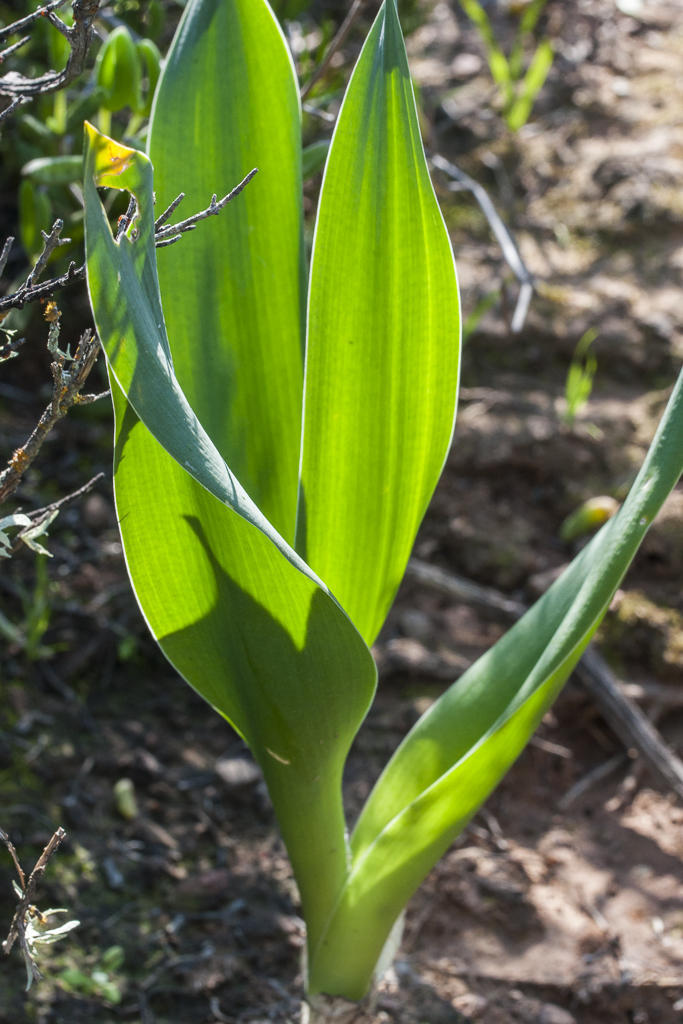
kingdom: Plantae
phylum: Tracheophyta
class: Liliopsida
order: Asparagales
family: Asparagaceae
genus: Drimia
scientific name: Drimia capensis
